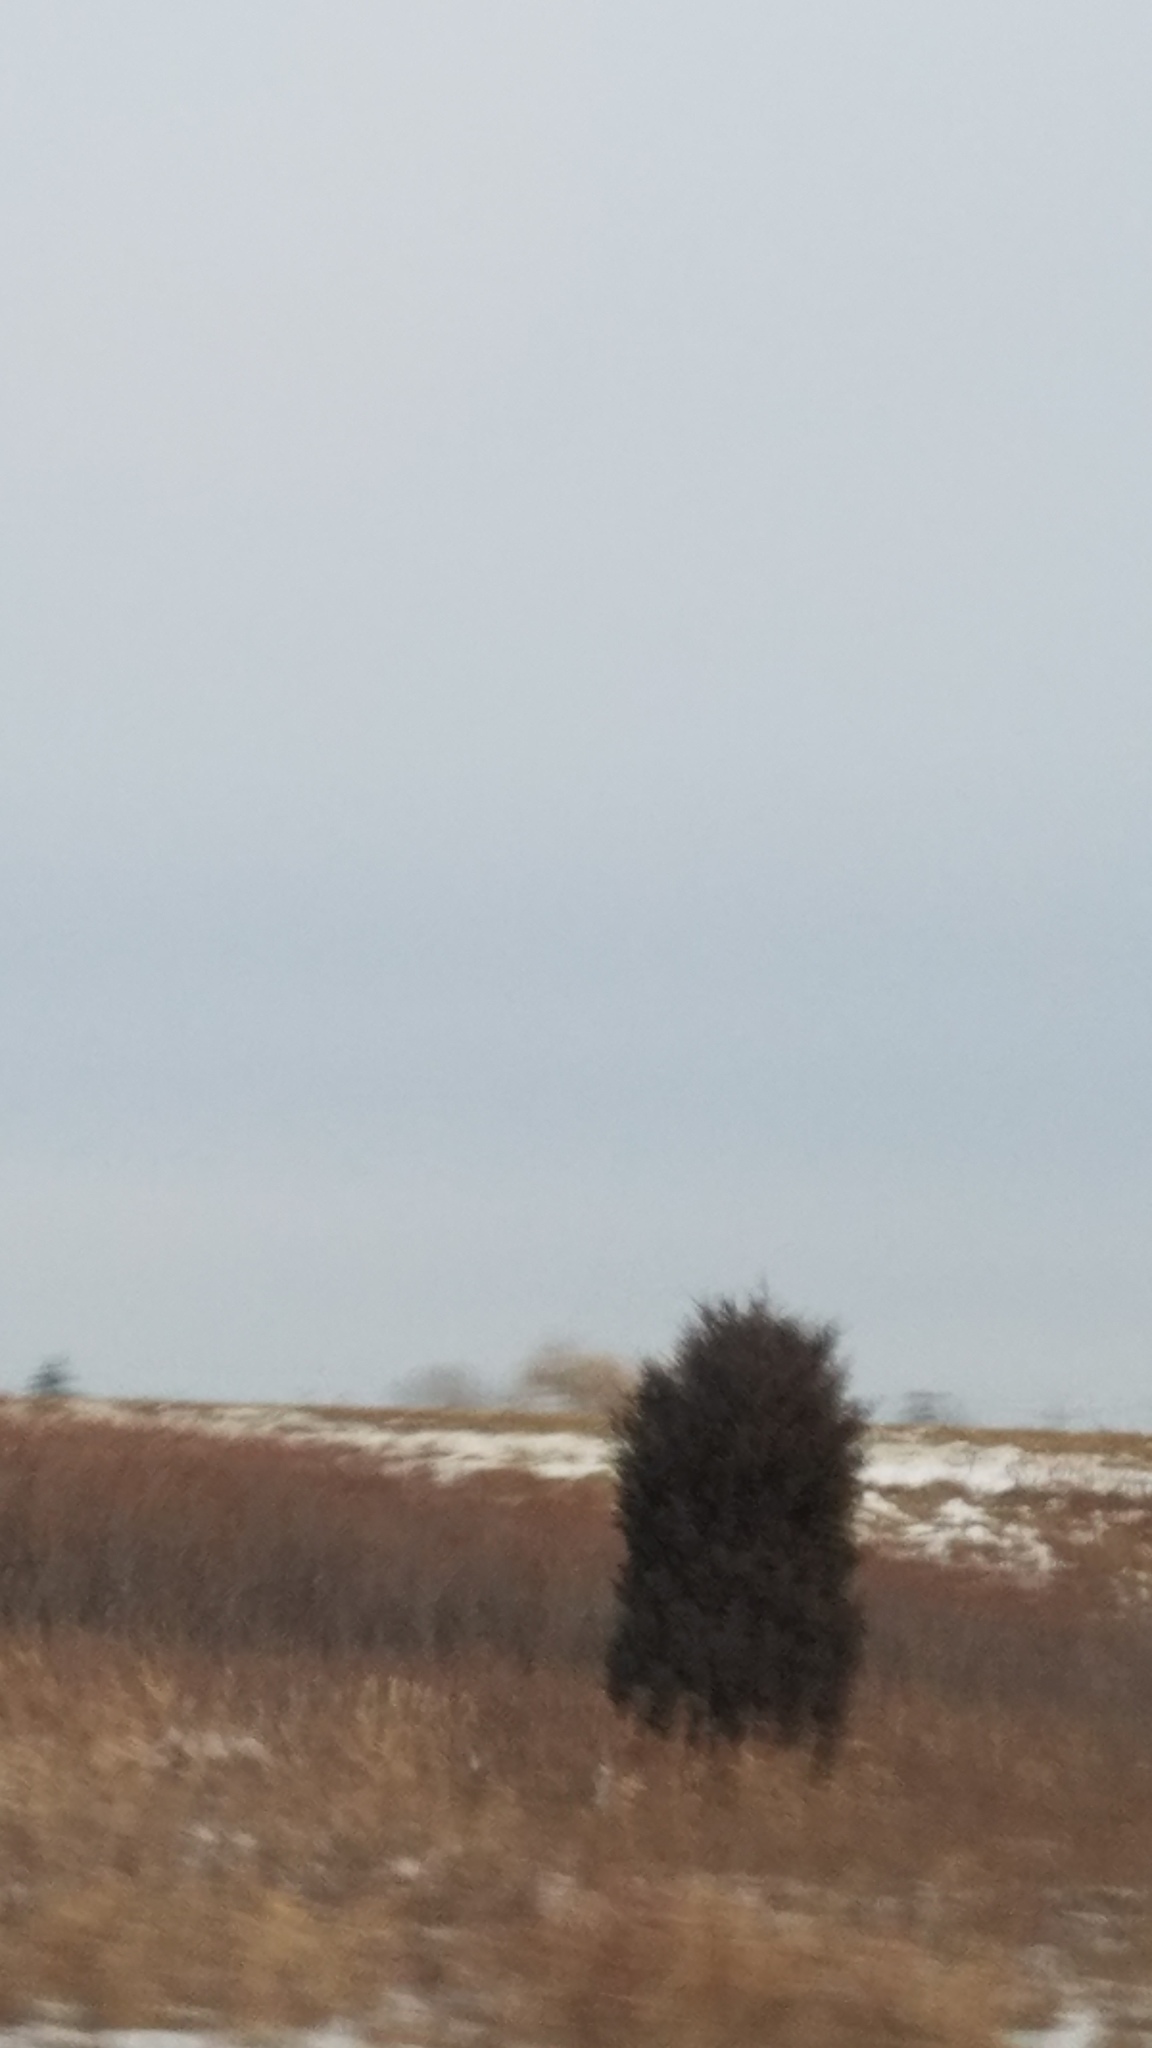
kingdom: Plantae
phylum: Tracheophyta
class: Pinopsida
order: Pinales
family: Cupressaceae
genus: Juniperus
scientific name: Juniperus virginiana
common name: Red juniper
